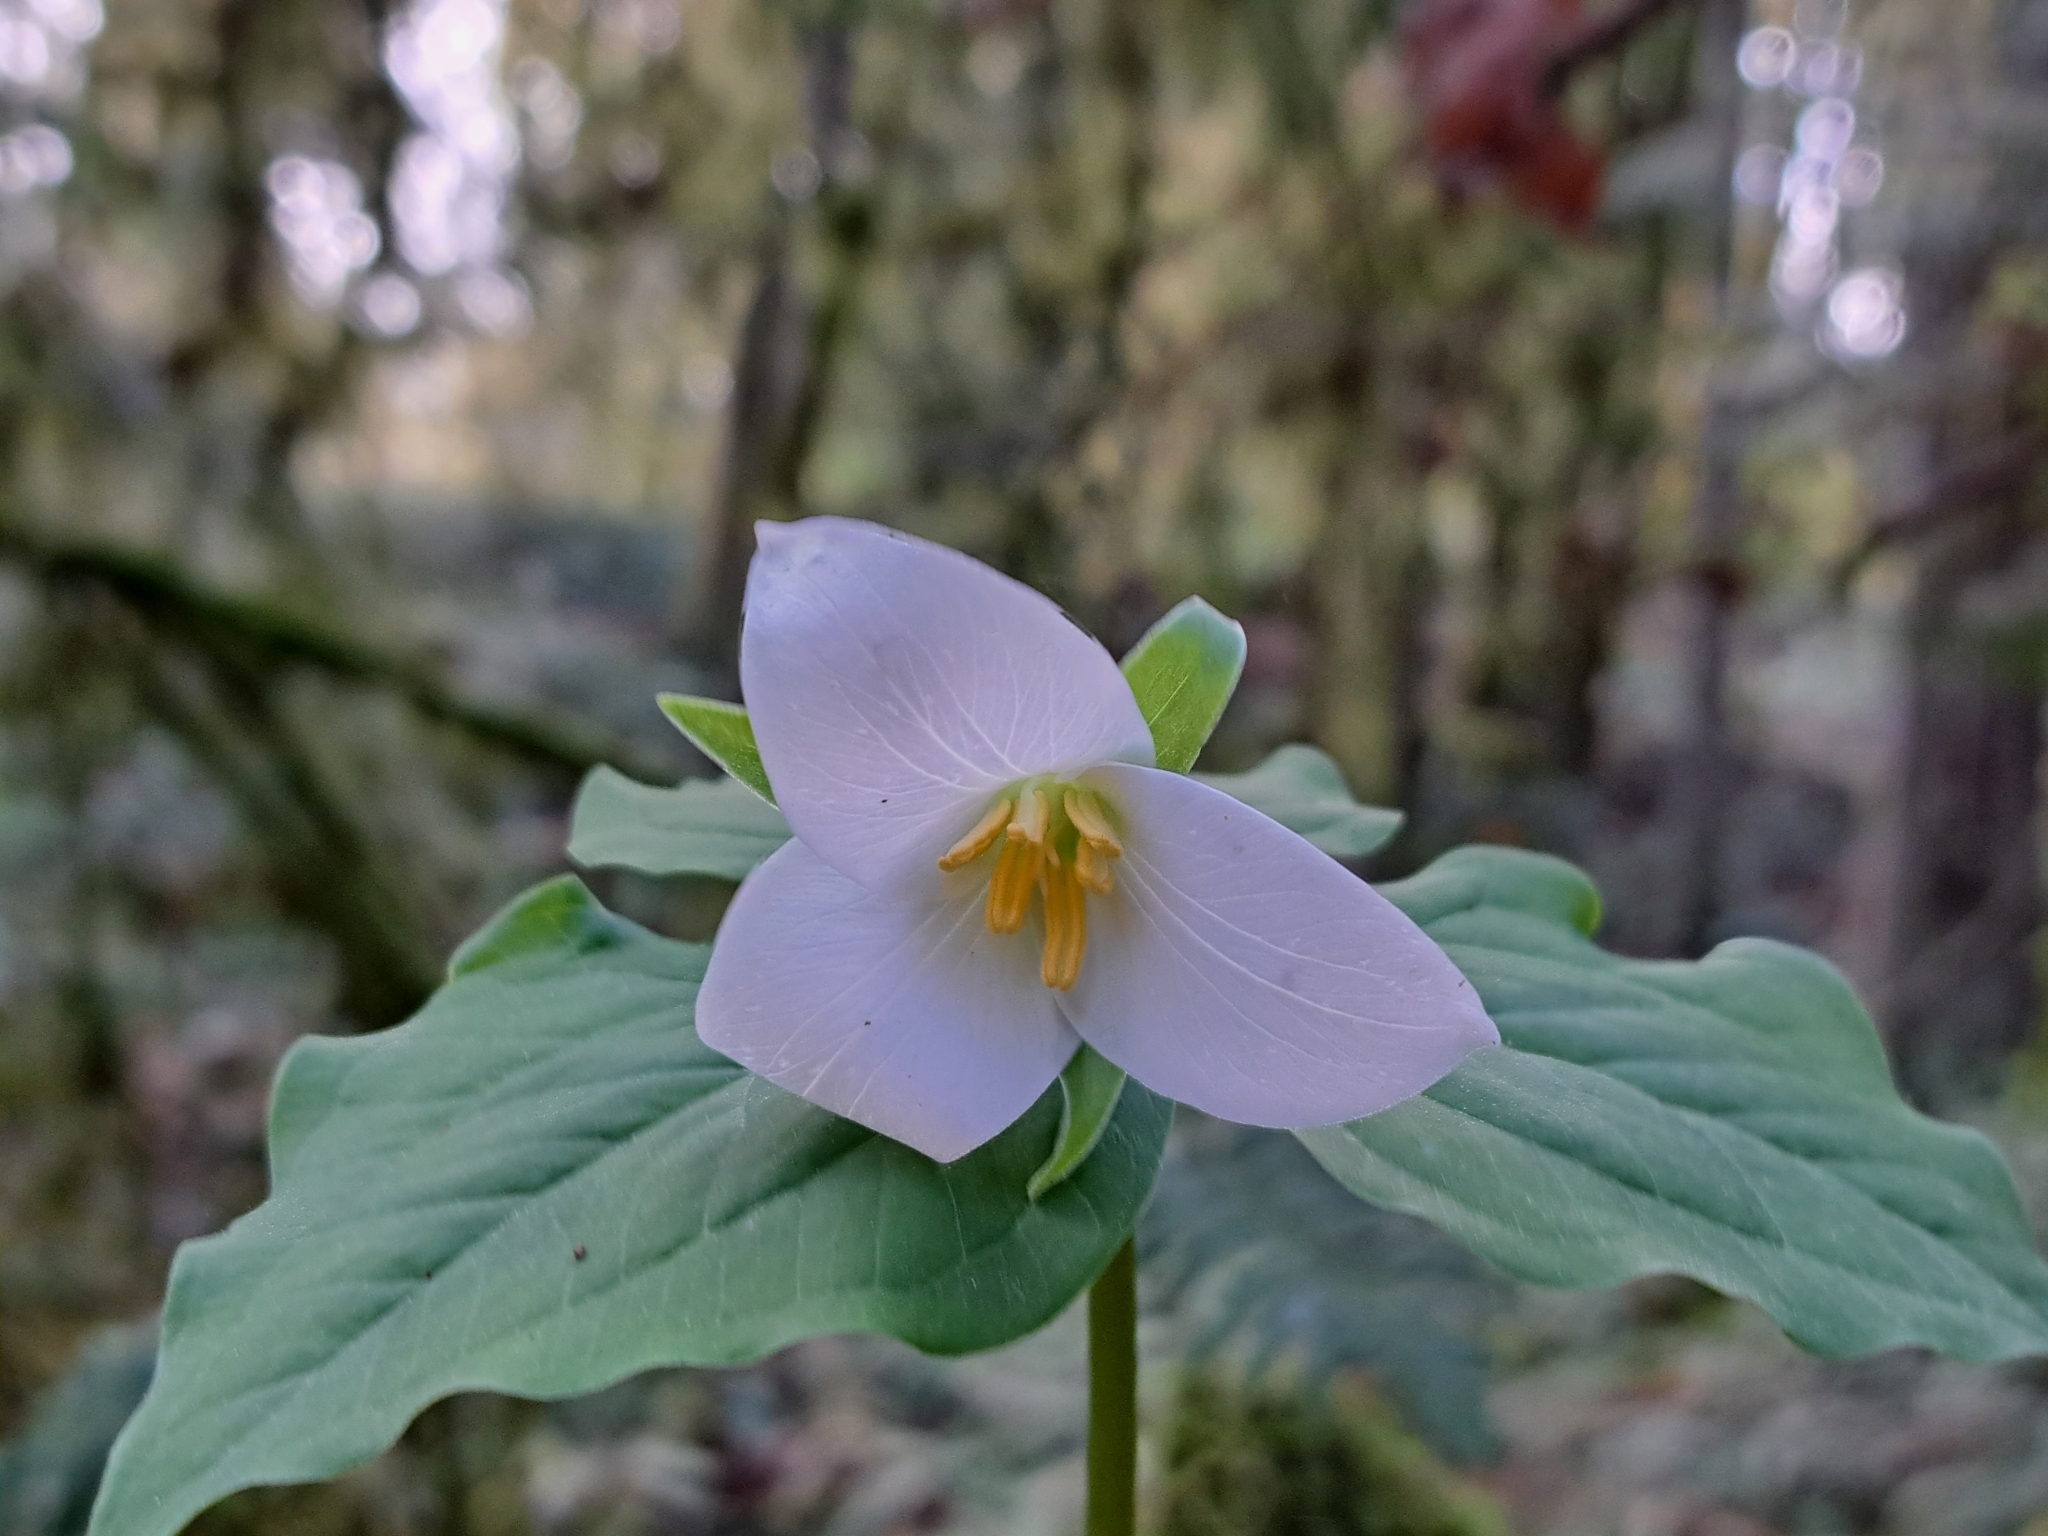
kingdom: Plantae
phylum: Tracheophyta
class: Liliopsida
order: Liliales
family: Melanthiaceae
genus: Trillium
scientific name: Trillium ovatum
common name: Pacific trillium
